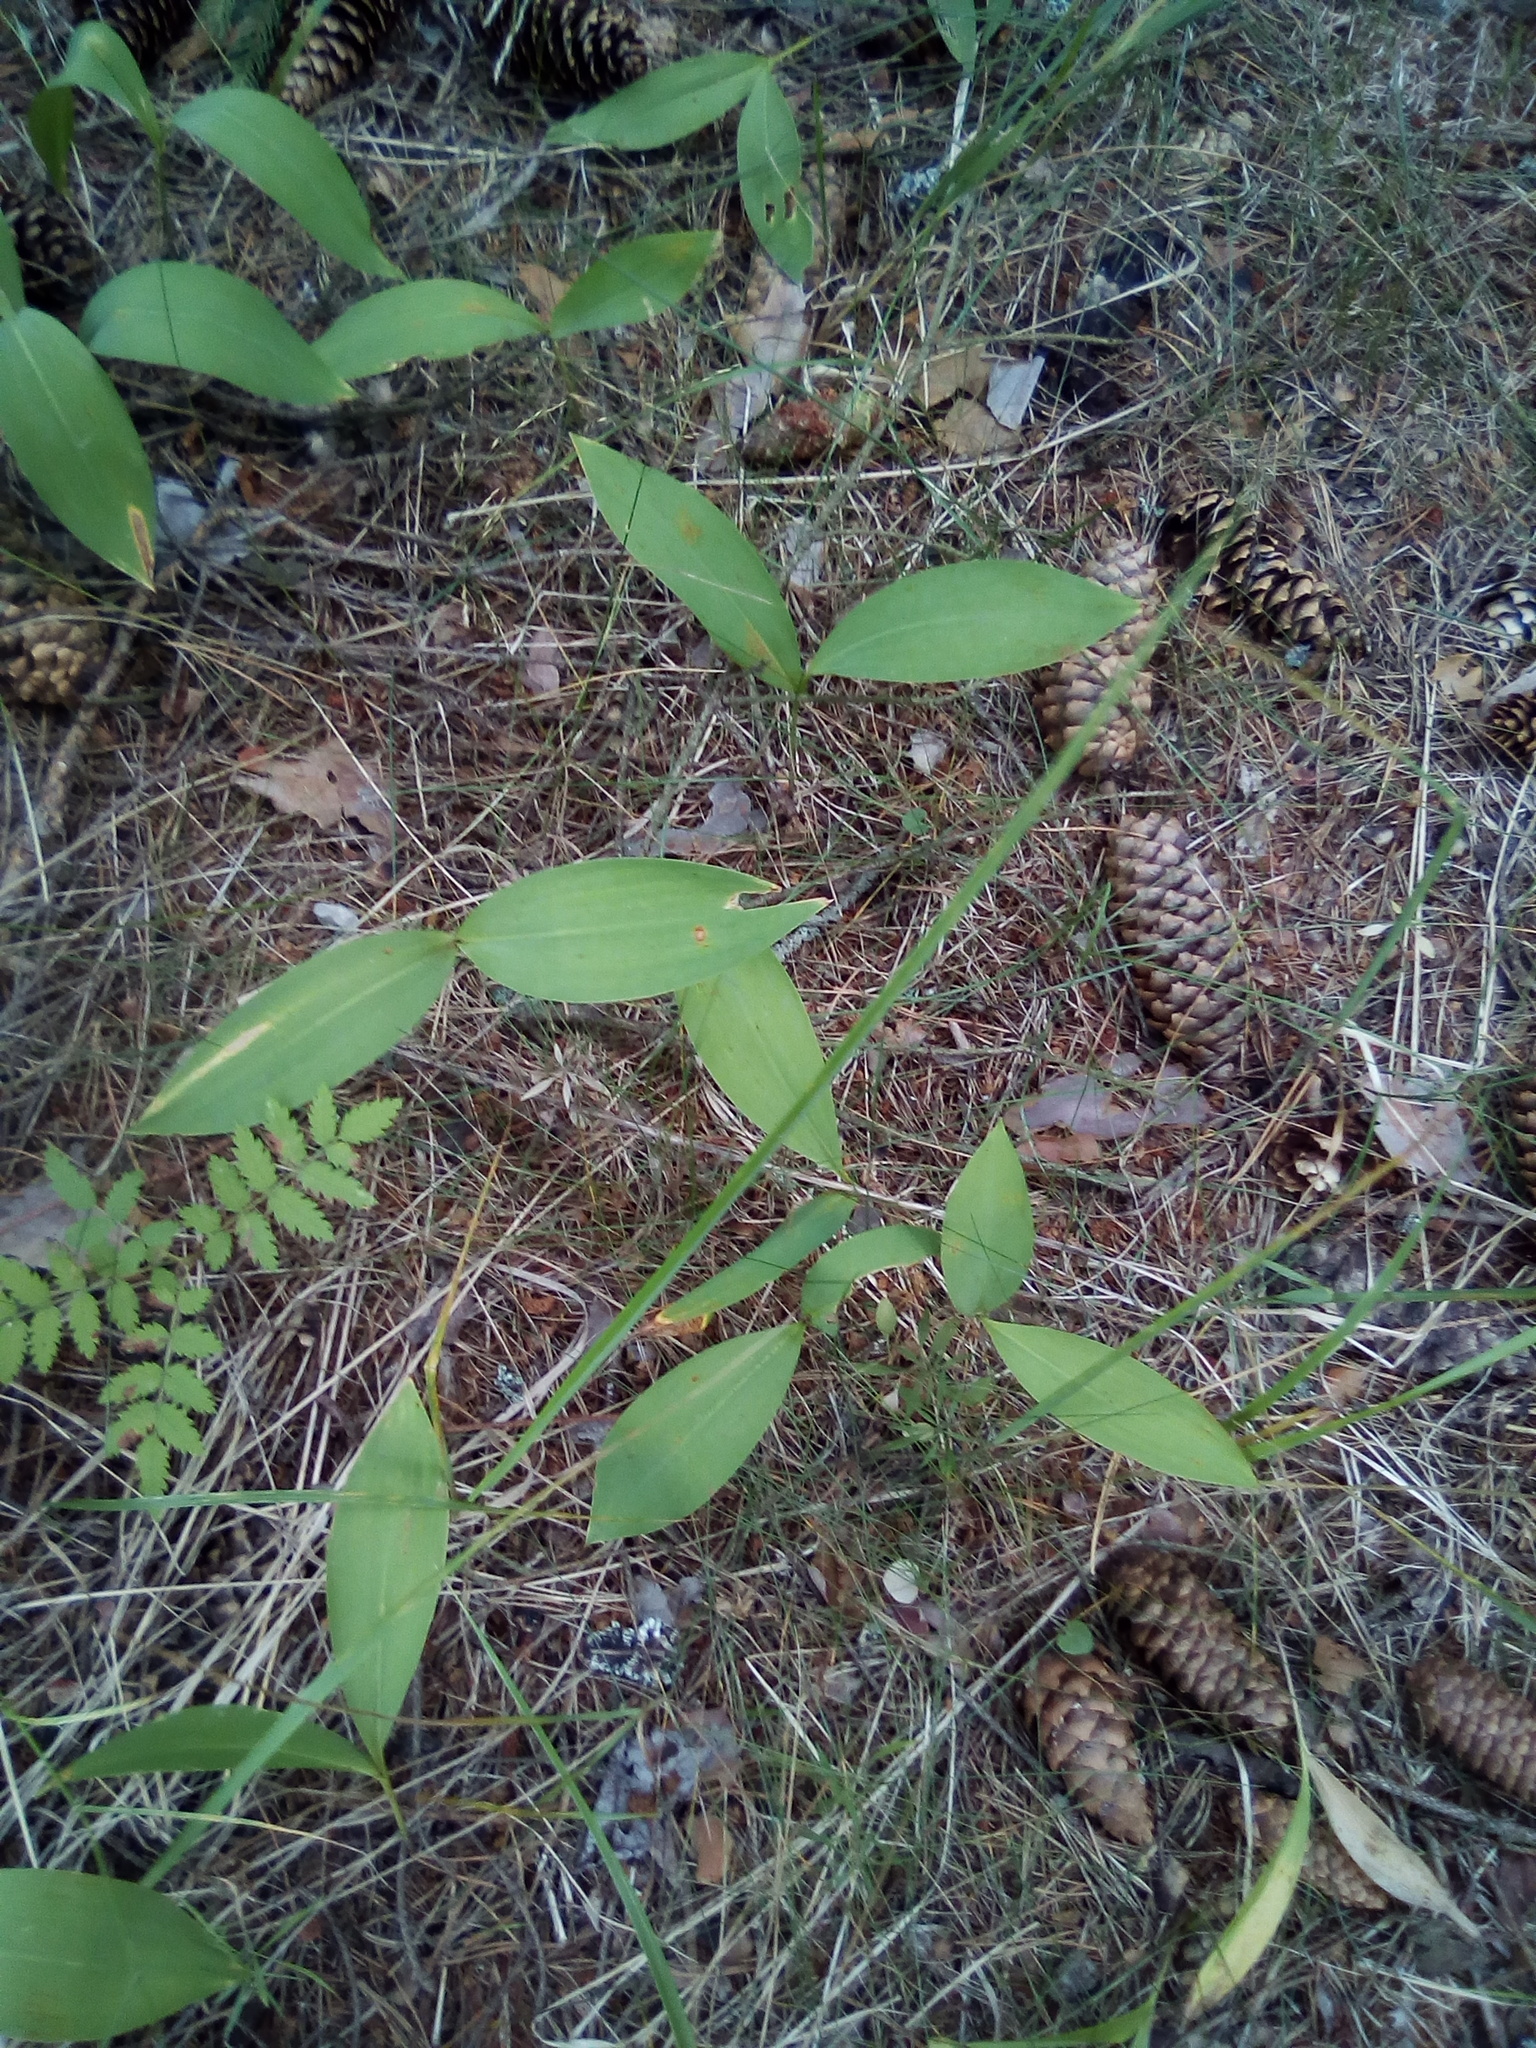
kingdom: Plantae
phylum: Tracheophyta
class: Liliopsida
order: Asparagales
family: Asparagaceae
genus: Convallaria
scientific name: Convallaria majalis
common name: Lily-of-the-valley
